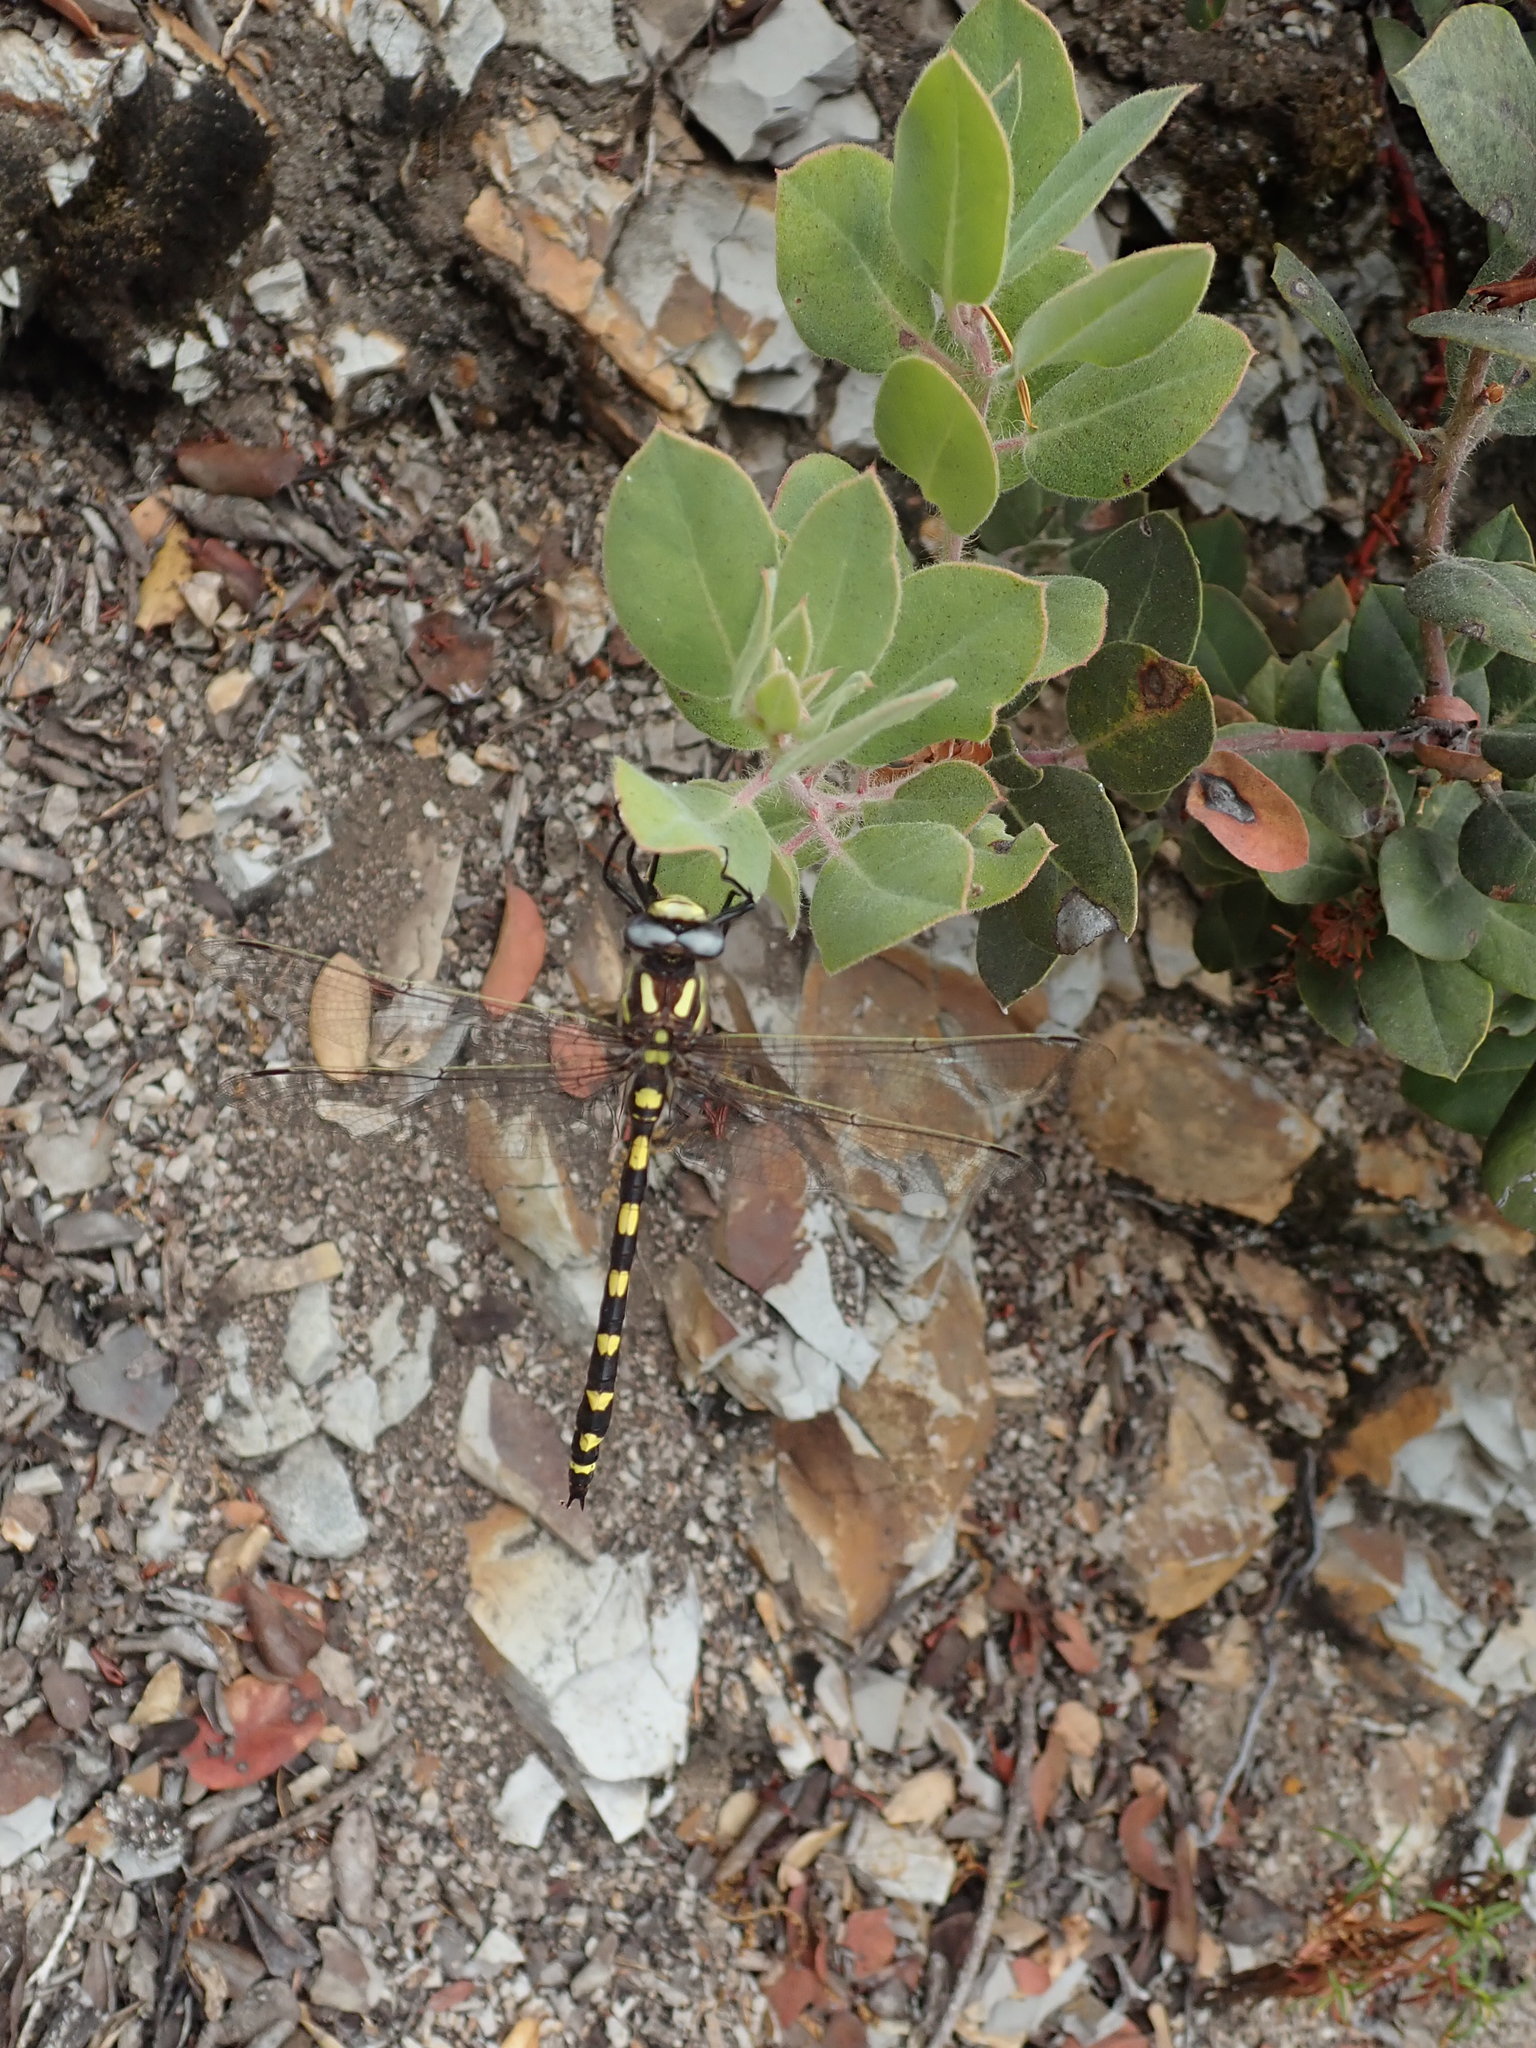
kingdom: Animalia
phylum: Arthropoda
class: Insecta
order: Odonata
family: Cordulegastridae
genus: Cordulegaster
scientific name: Cordulegaster dorsalis
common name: Pacific spiketail
